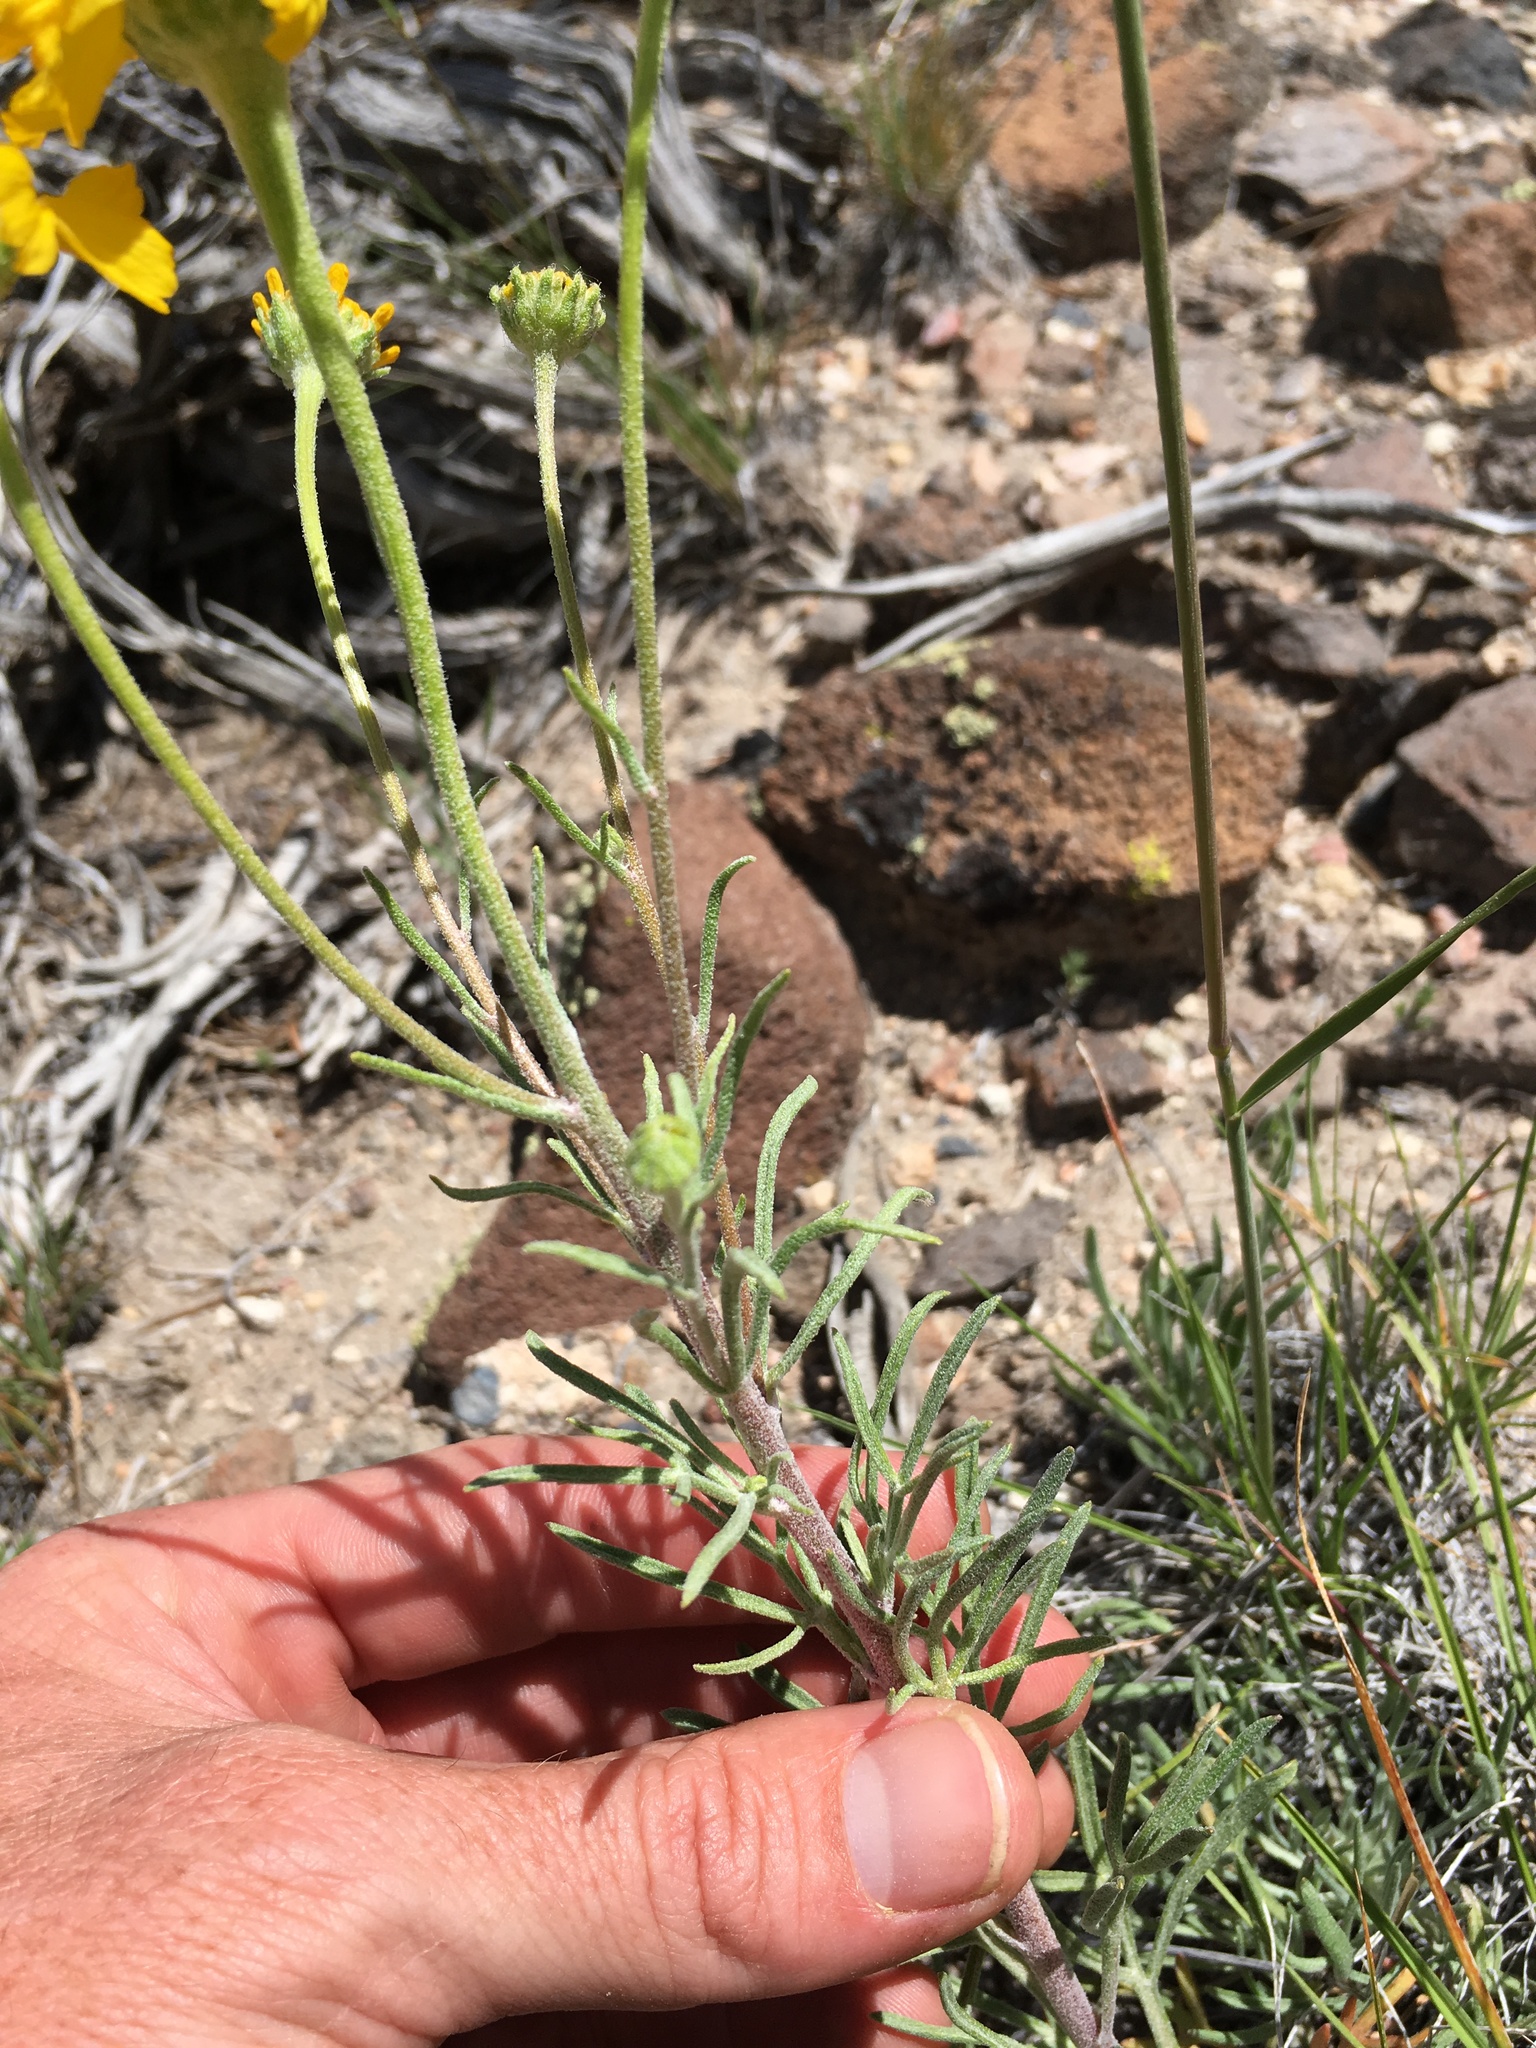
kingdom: Plantae
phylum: Tracheophyta
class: Magnoliopsida
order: Asterales
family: Asteraceae
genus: Hymenoxys
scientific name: Hymenoxys cooperi
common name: Cooper's bitterweed
